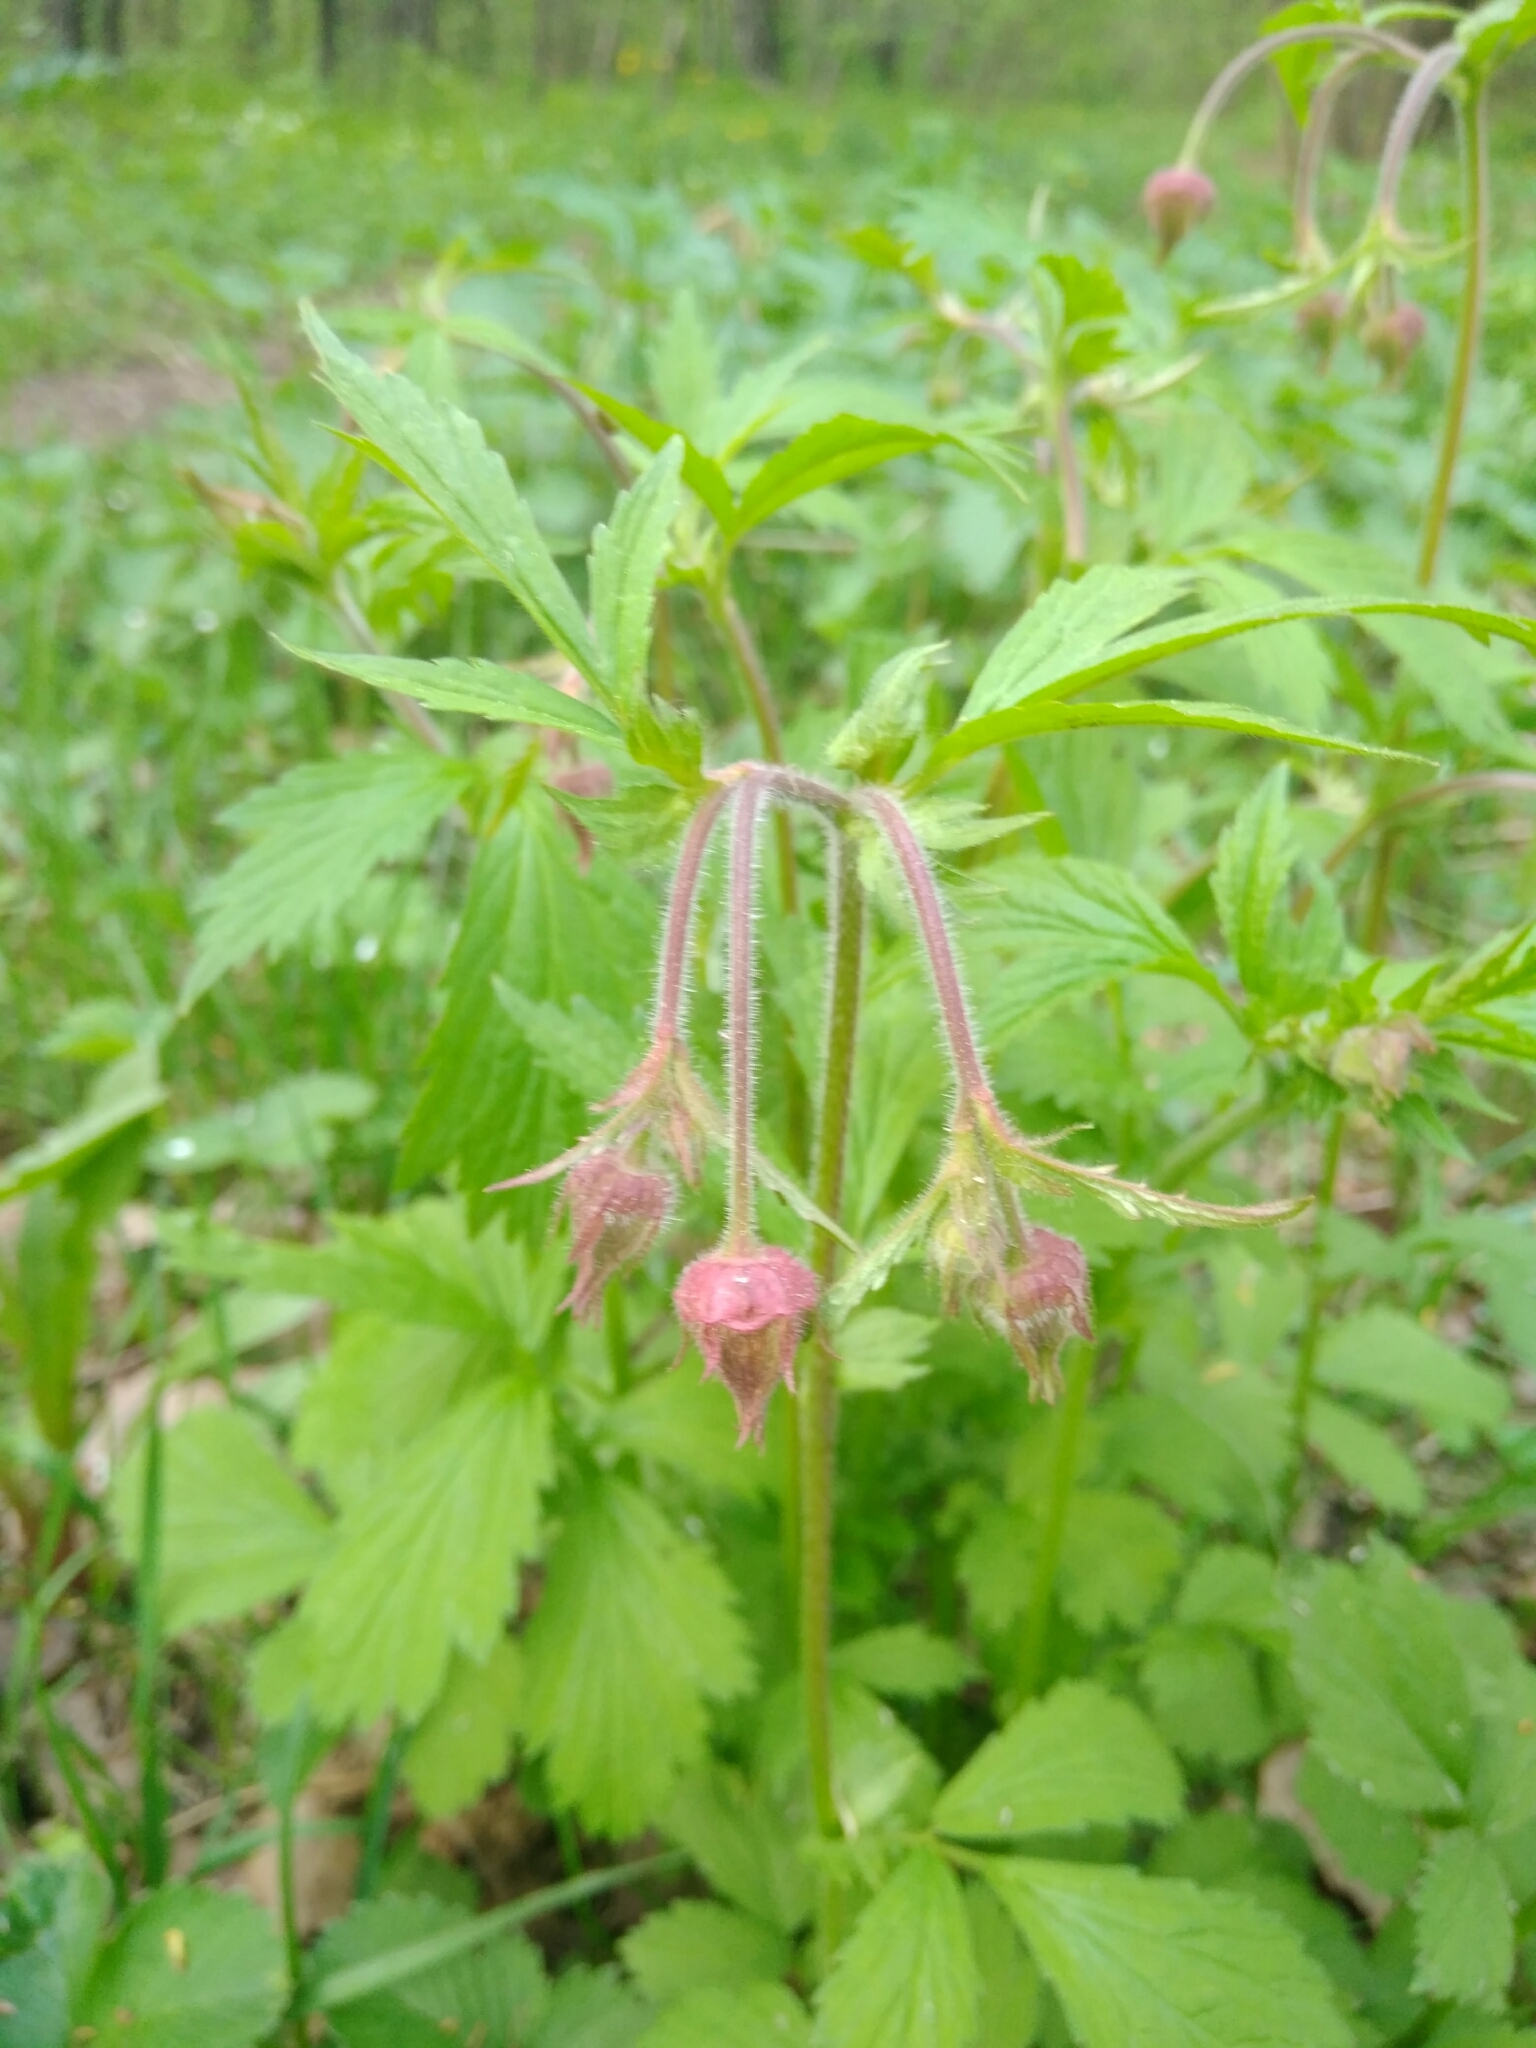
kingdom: Plantae
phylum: Tracheophyta
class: Magnoliopsida
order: Rosales
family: Rosaceae
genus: Geum
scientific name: Geum rivale
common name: Water avens
